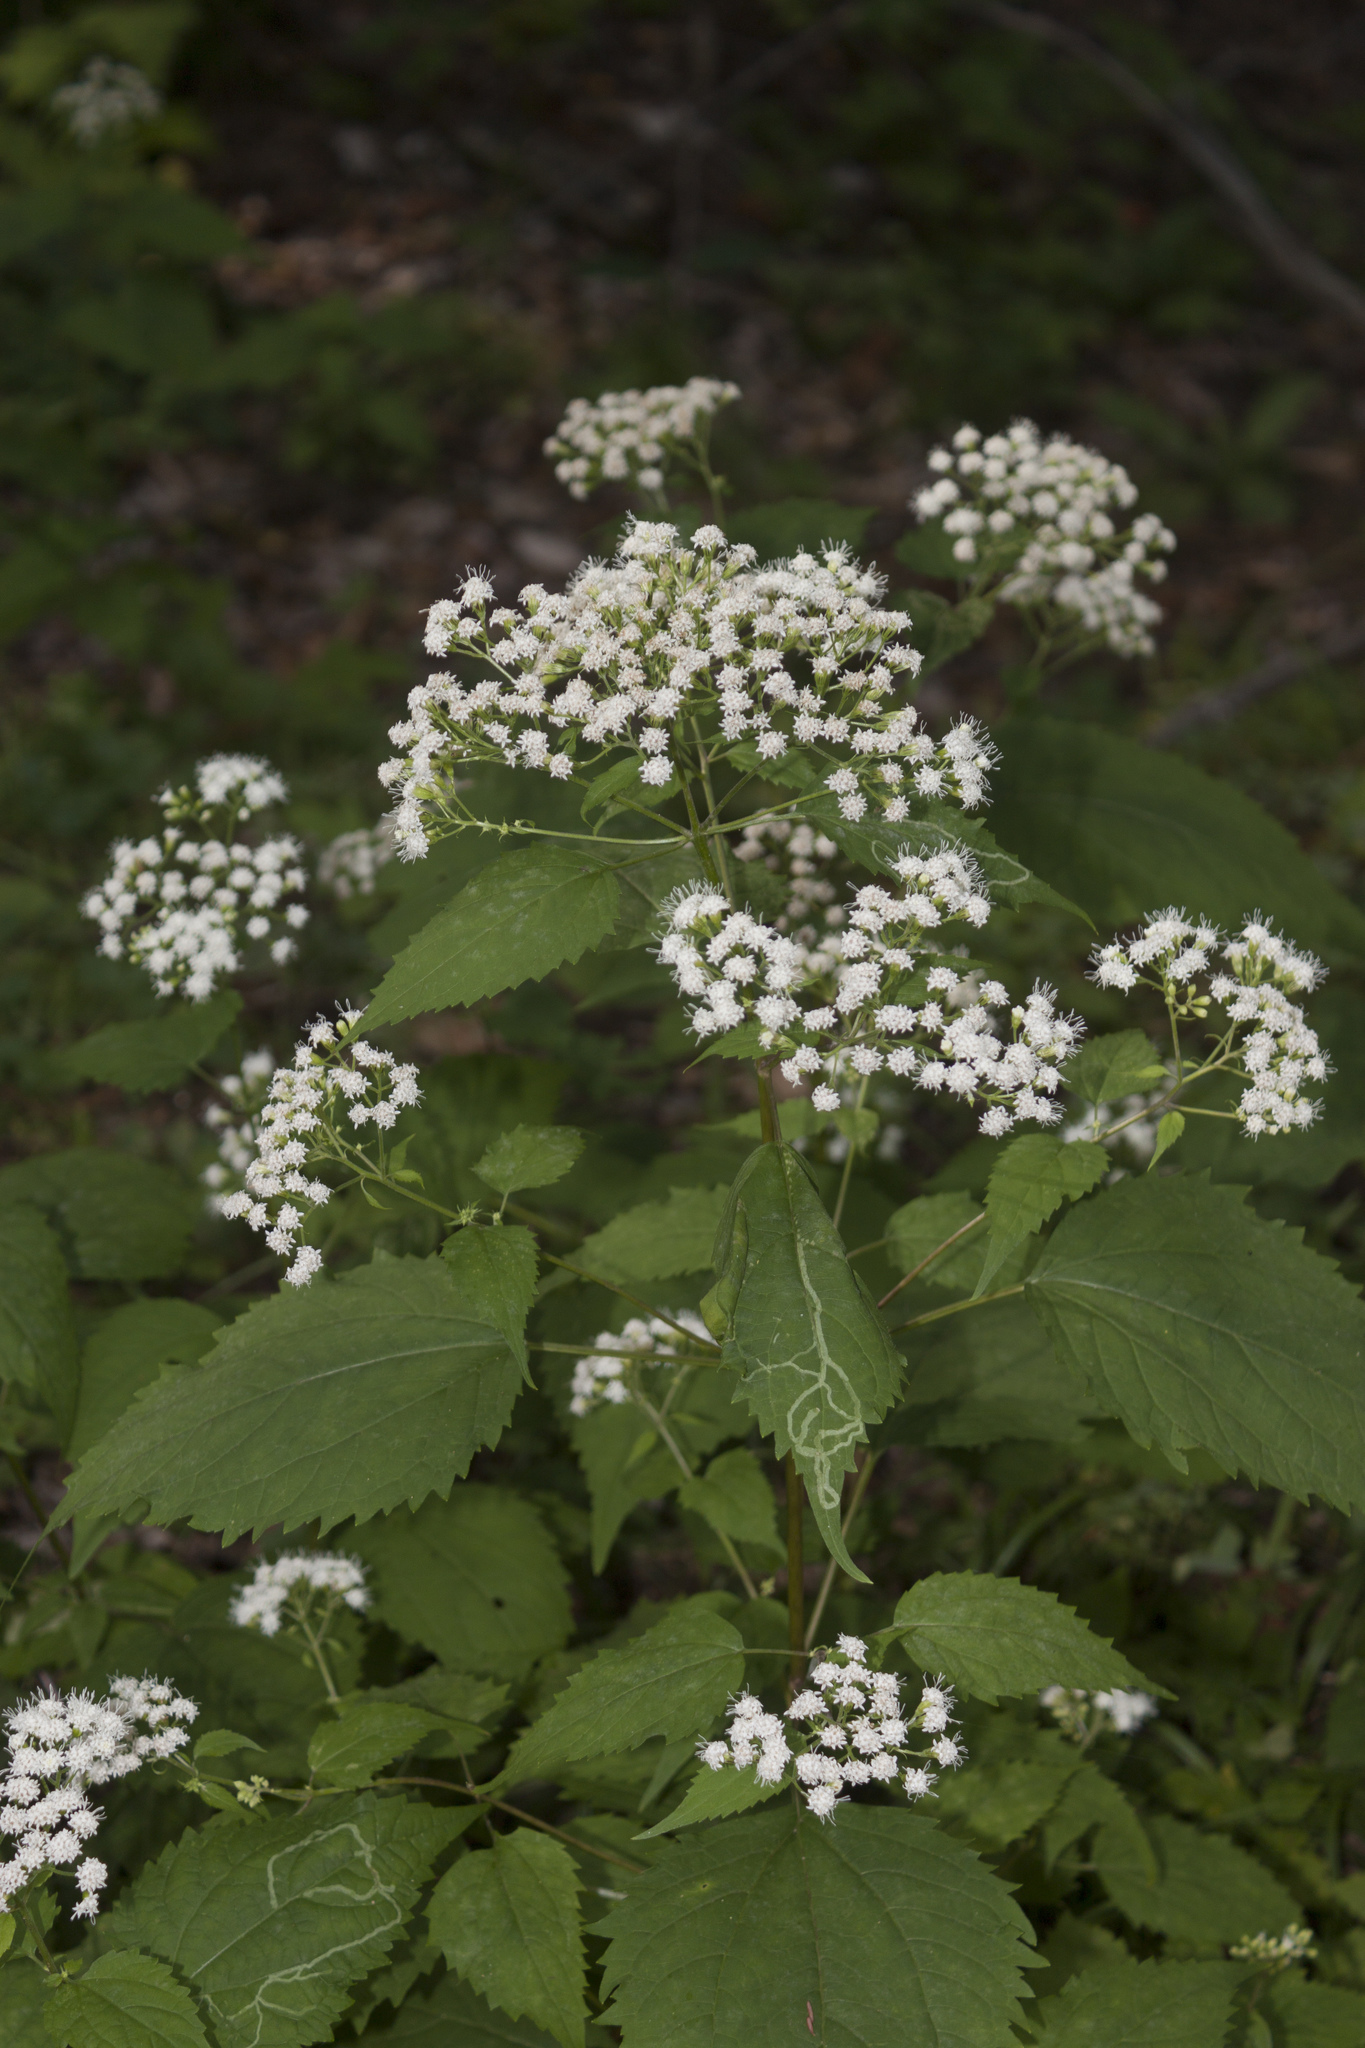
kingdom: Plantae
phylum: Tracheophyta
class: Magnoliopsida
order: Asterales
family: Asteraceae
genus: Ageratina
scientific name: Ageratina altissima
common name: White snakeroot
